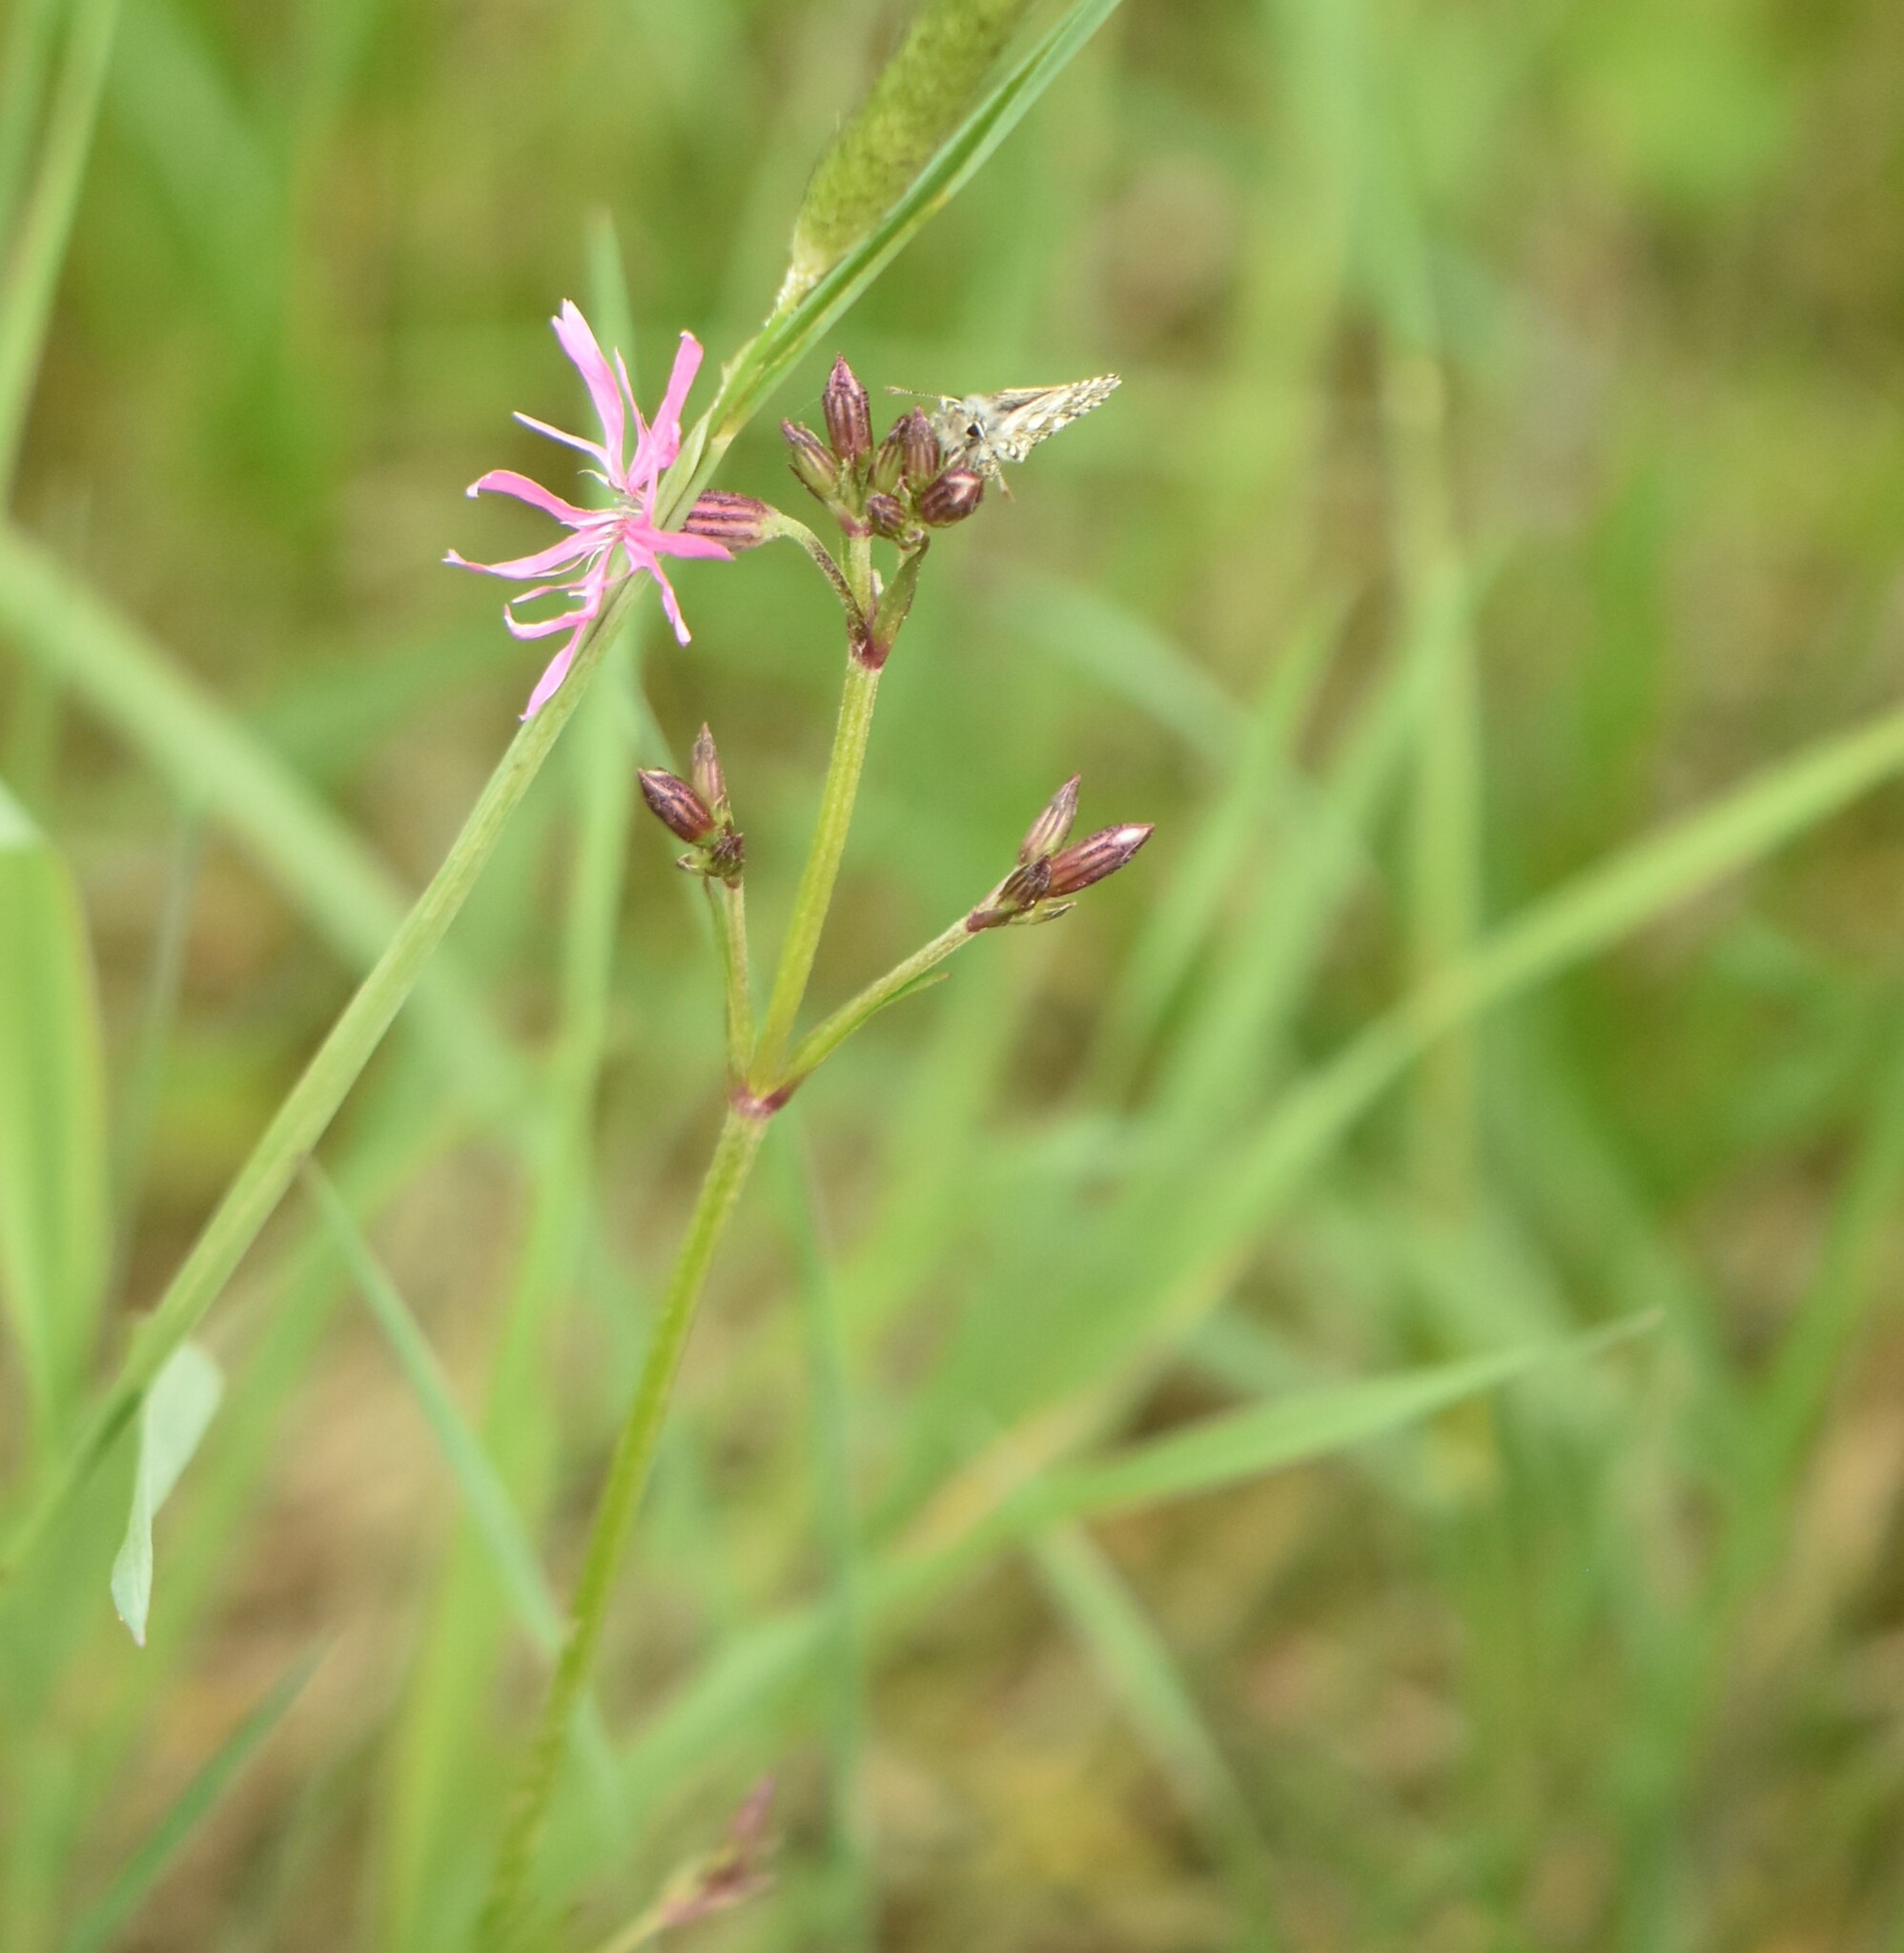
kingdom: Plantae
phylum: Tracheophyta
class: Magnoliopsida
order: Caryophyllales
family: Caryophyllaceae
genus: Silene
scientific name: Silene flos-cuculi
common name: Ragged-robin
